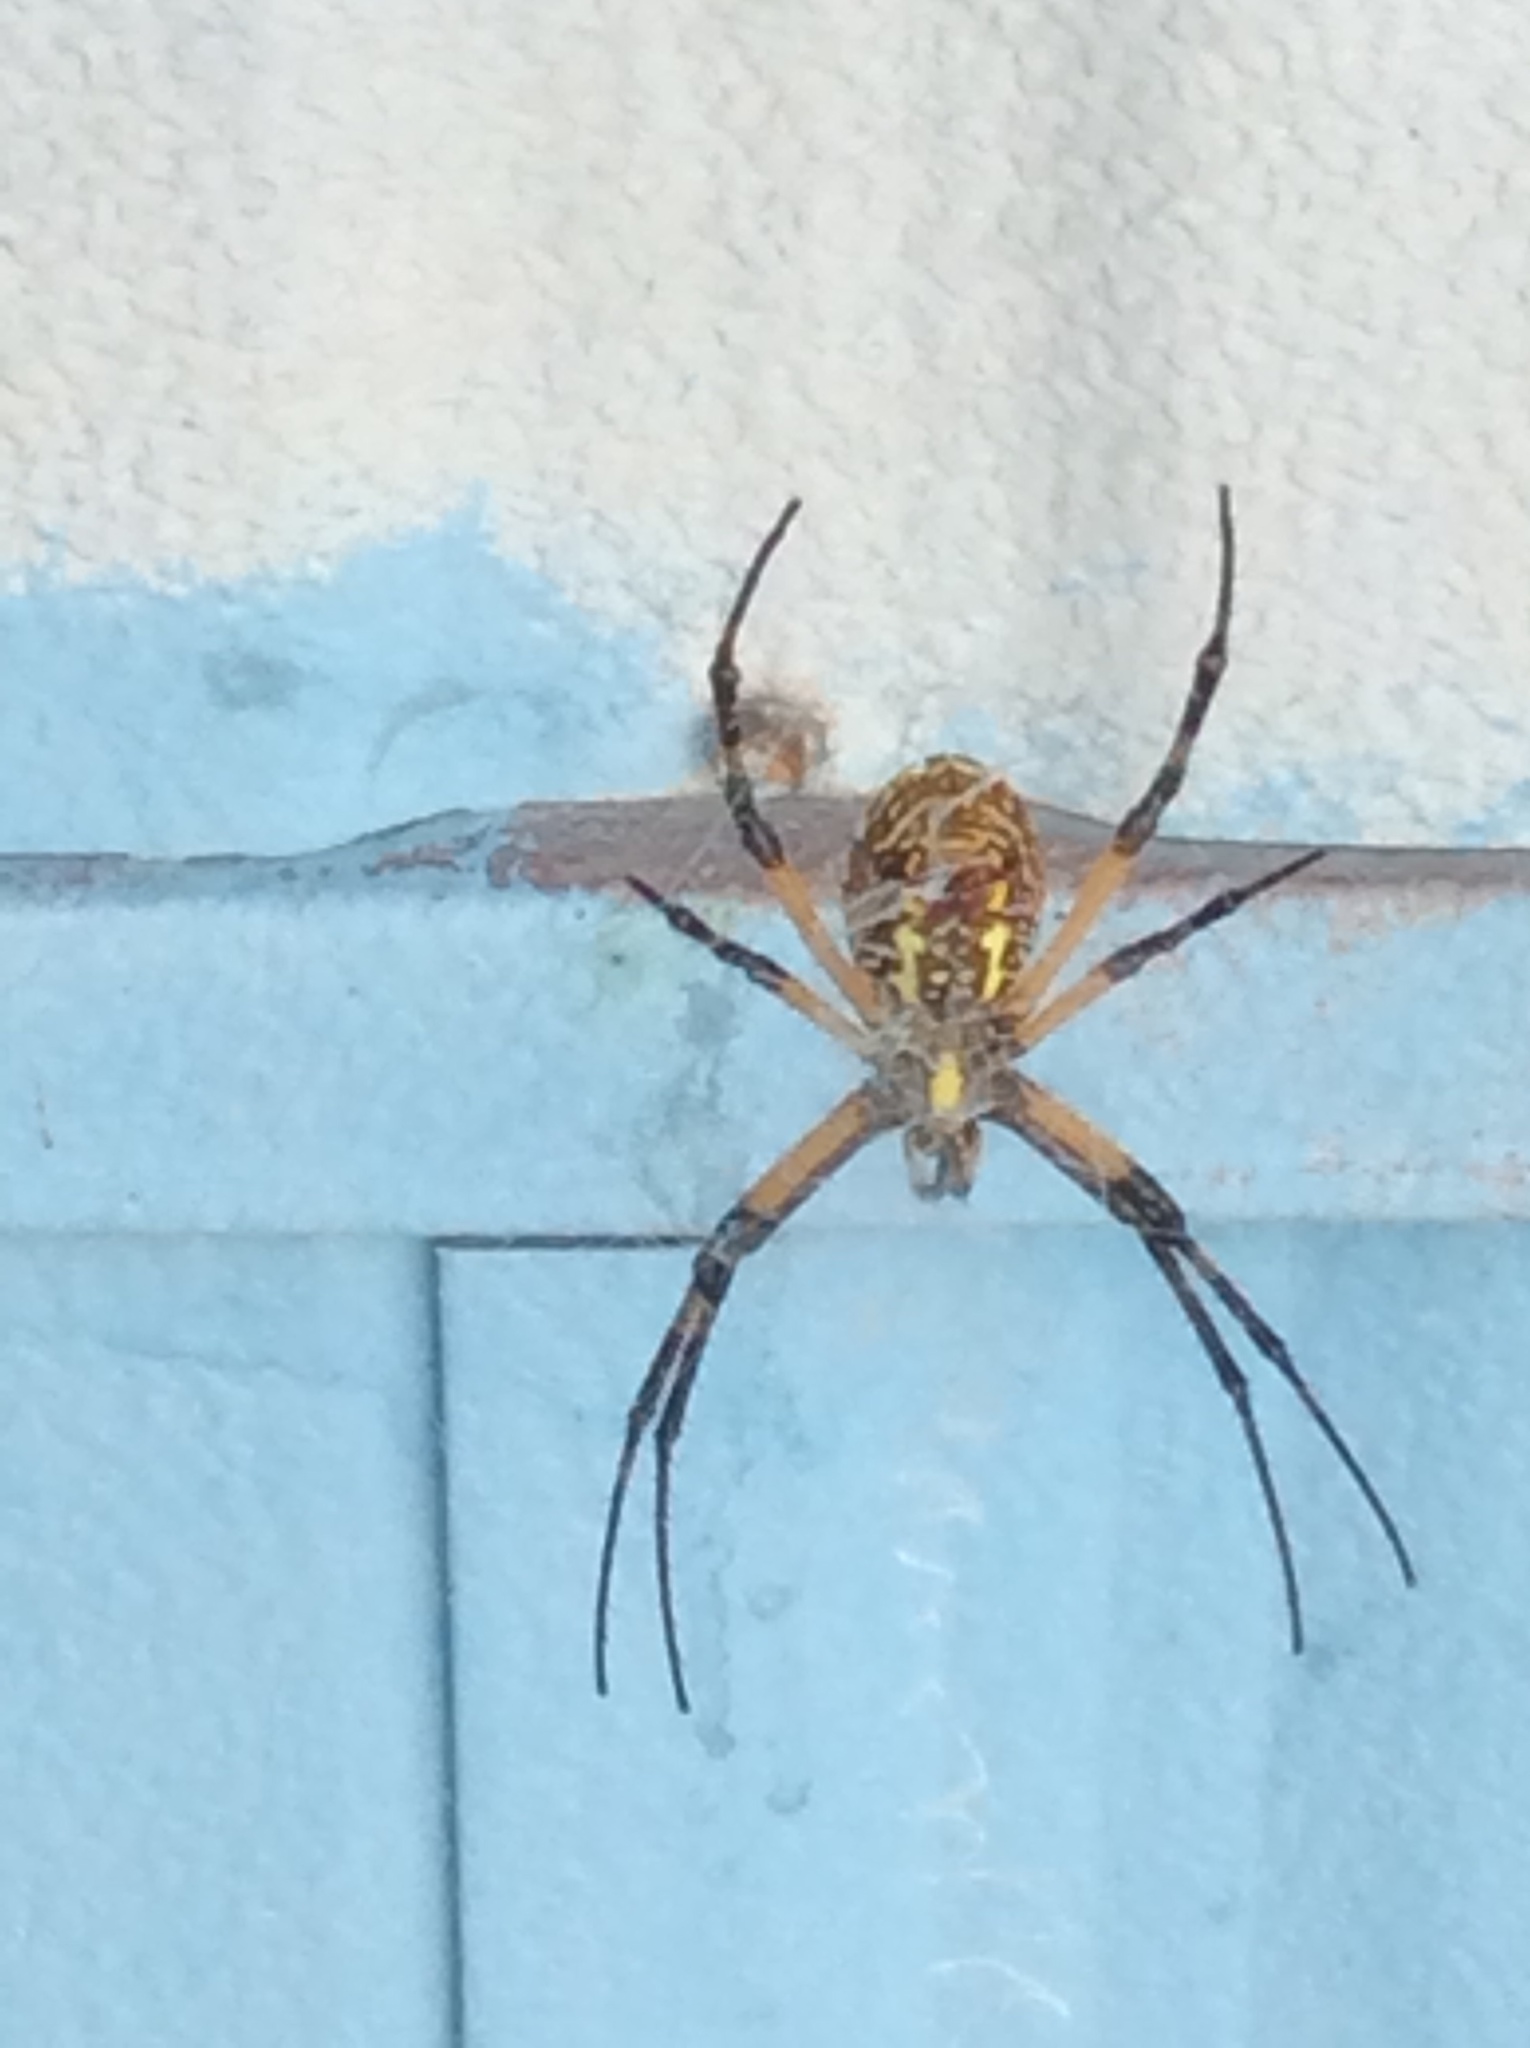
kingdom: Animalia
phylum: Arthropoda
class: Arachnida
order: Araneae
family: Araneidae
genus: Argiope
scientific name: Argiope aurantia
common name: Orb weavers
